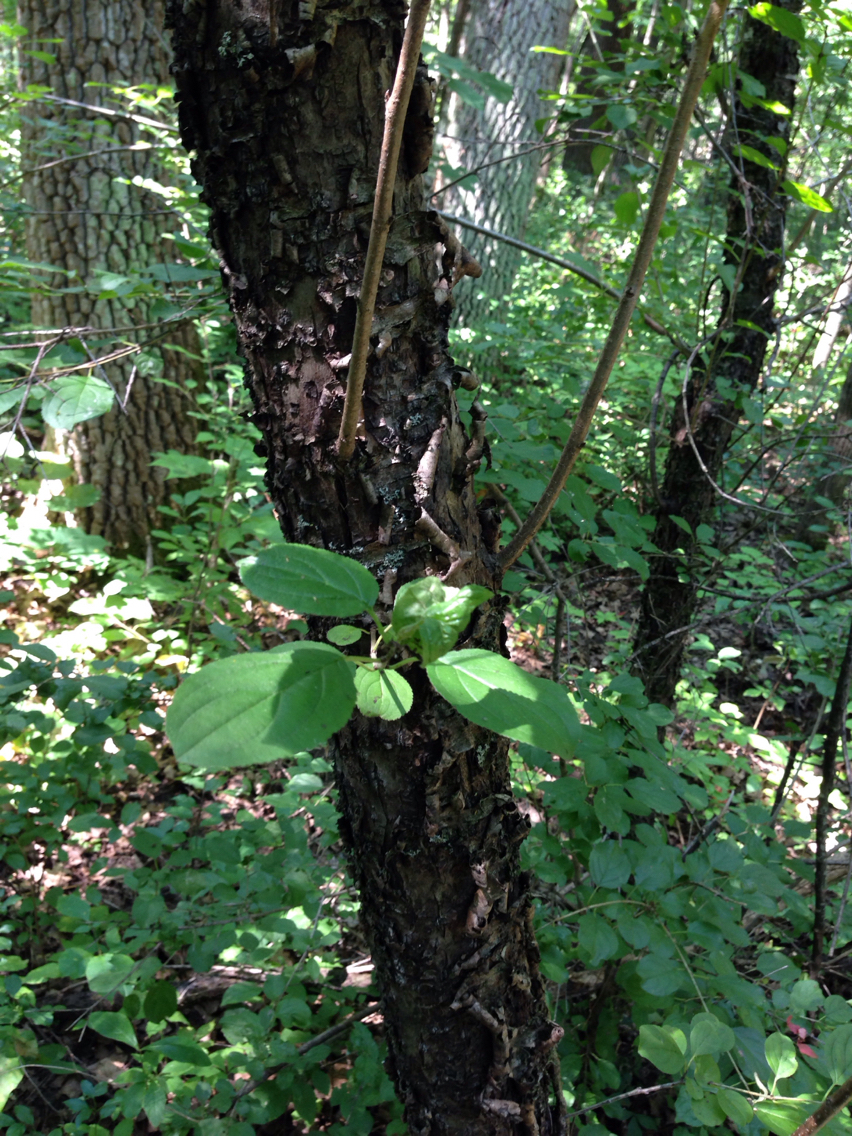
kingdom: Plantae
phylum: Tracheophyta
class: Magnoliopsida
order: Rosales
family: Rhamnaceae
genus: Rhamnus
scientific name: Rhamnus cathartica
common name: Common buckthorn
